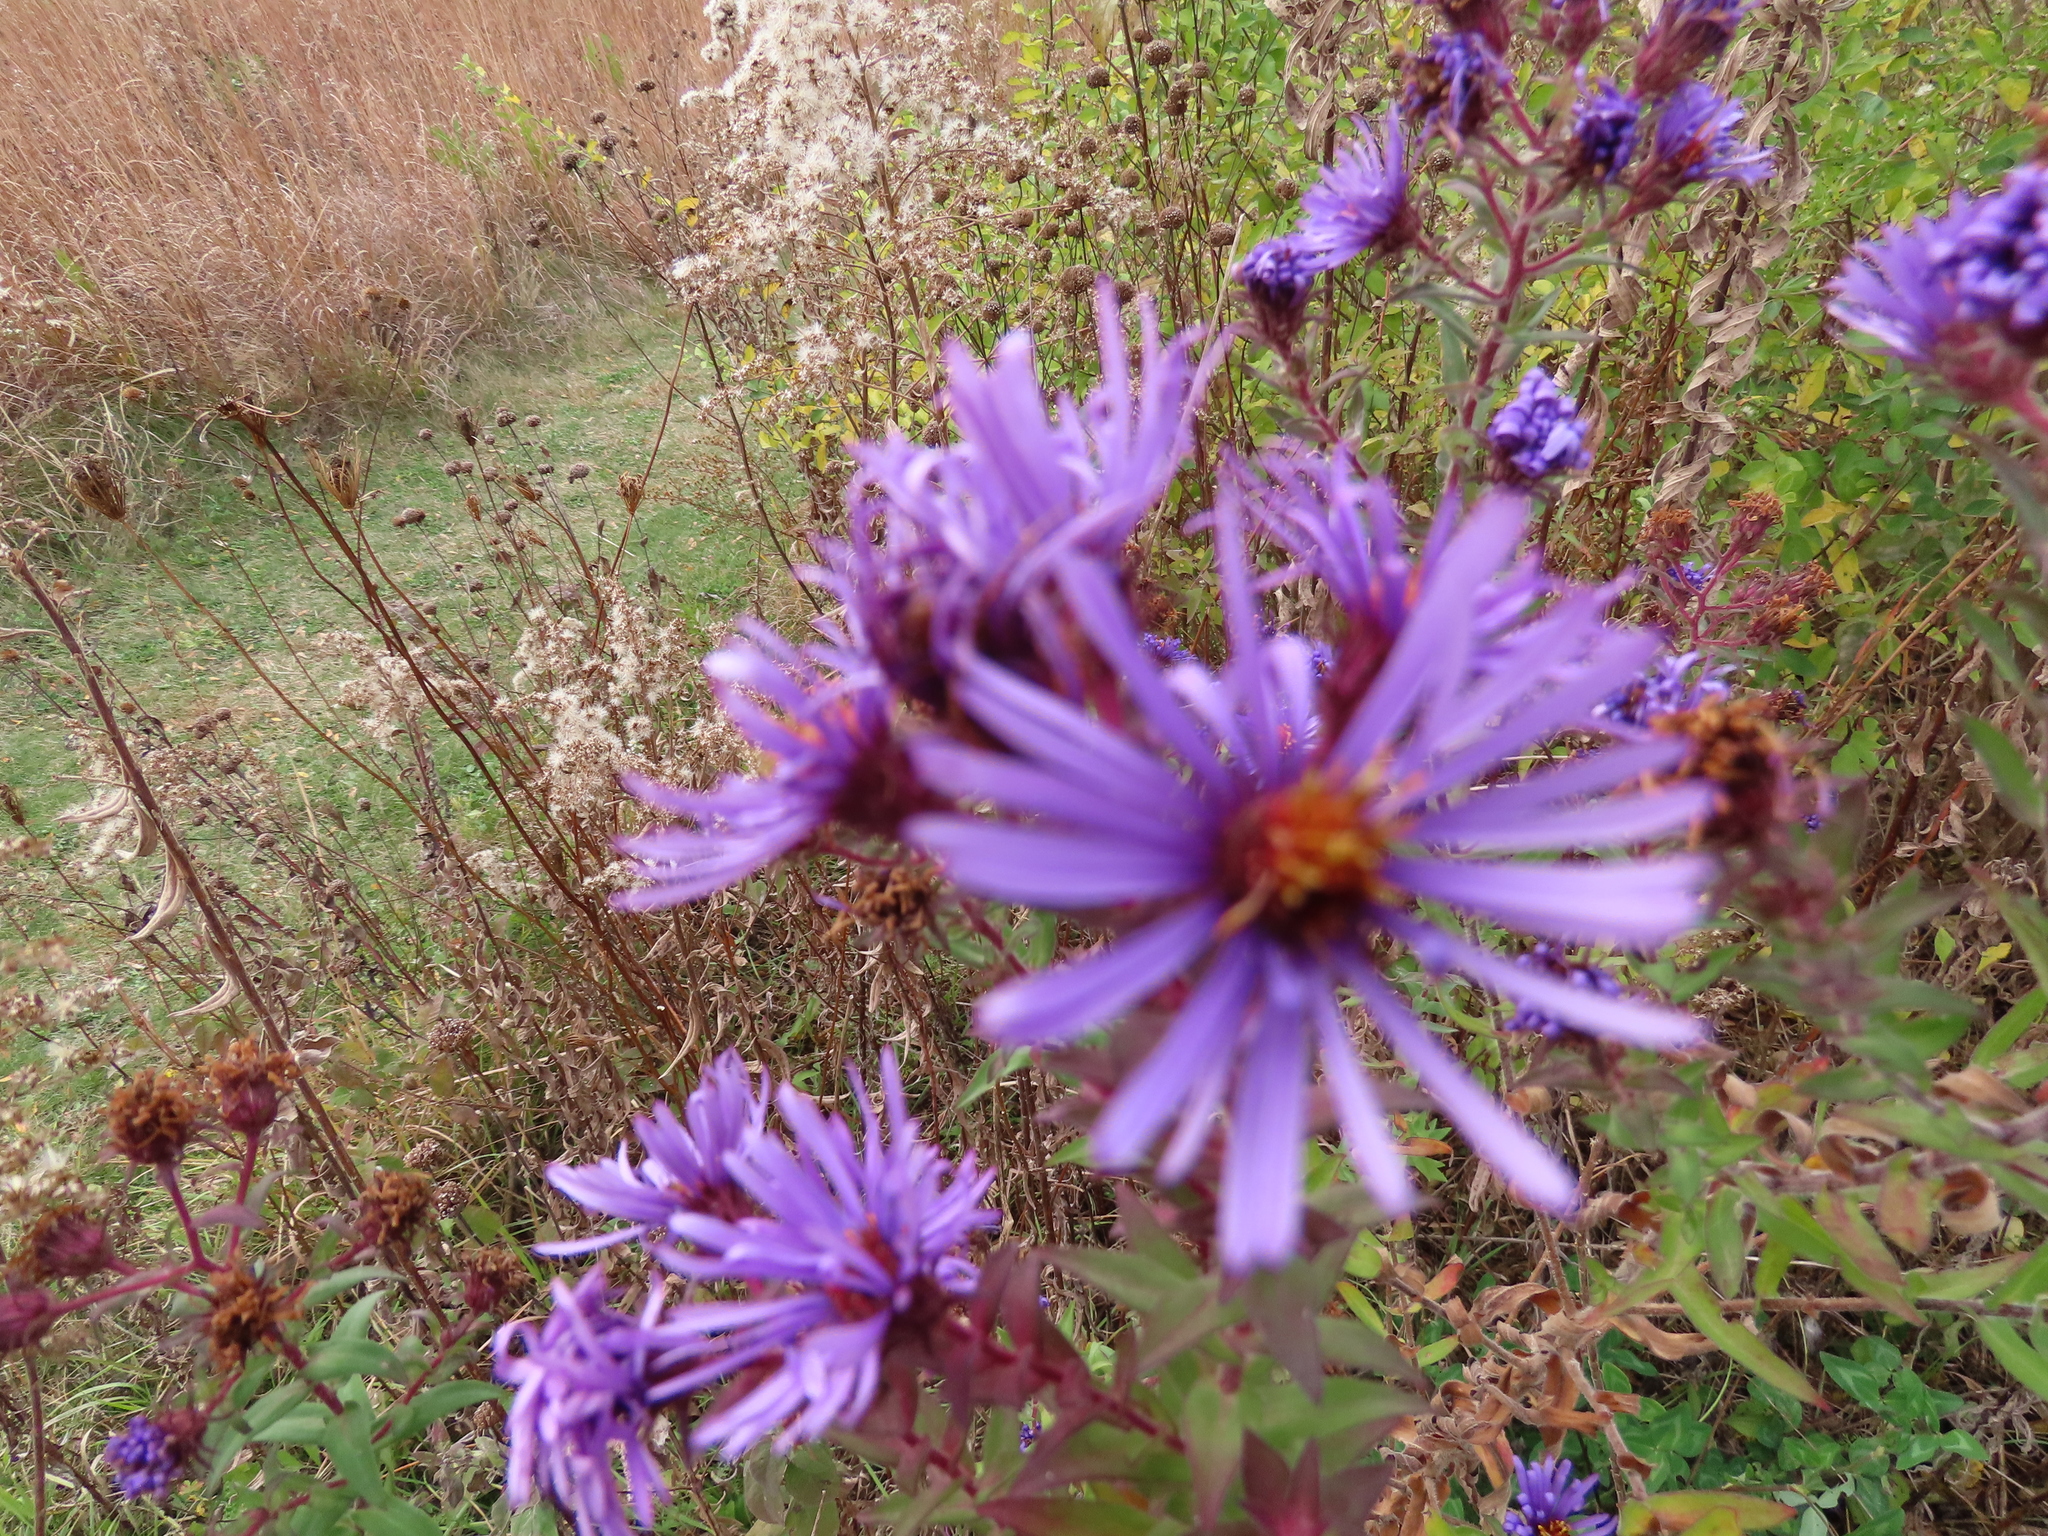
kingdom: Plantae
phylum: Tracheophyta
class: Magnoliopsida
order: Asterales
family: Asteraceae
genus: Symphyotrichum
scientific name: Symphyotrichum novae-angliae
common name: Michaelmas daisy
